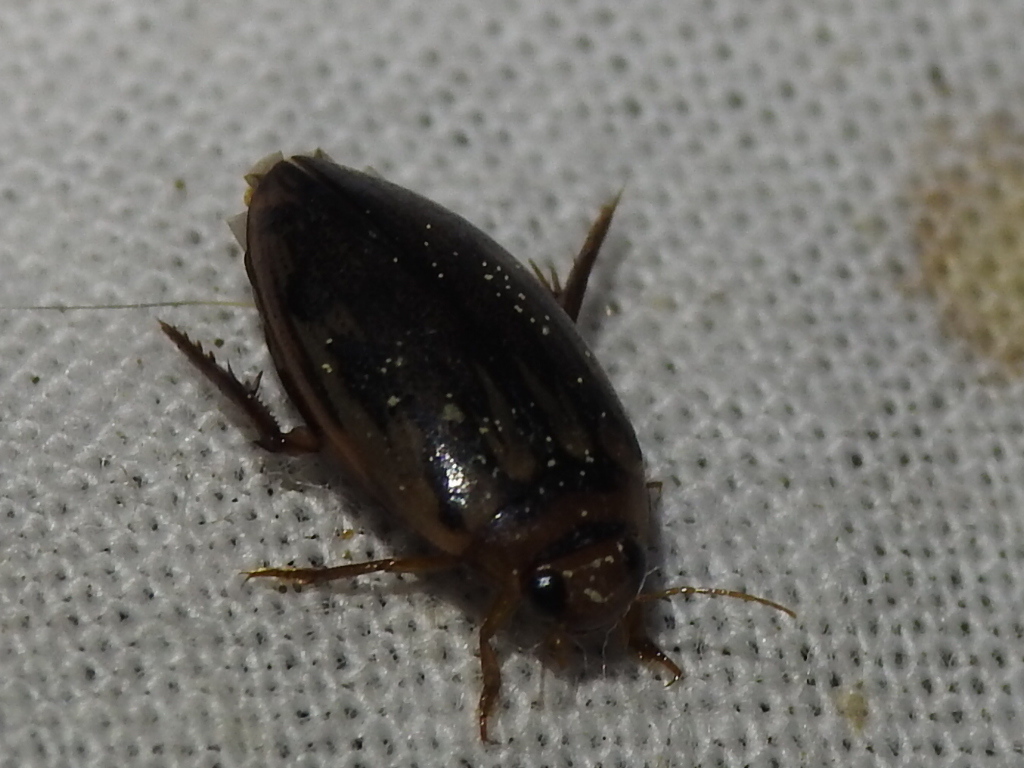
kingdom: Animalia
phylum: Arthropoda
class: Insecta
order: Coleoptera
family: Dytiscidae
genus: Coptotomus
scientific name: Coptotomus
